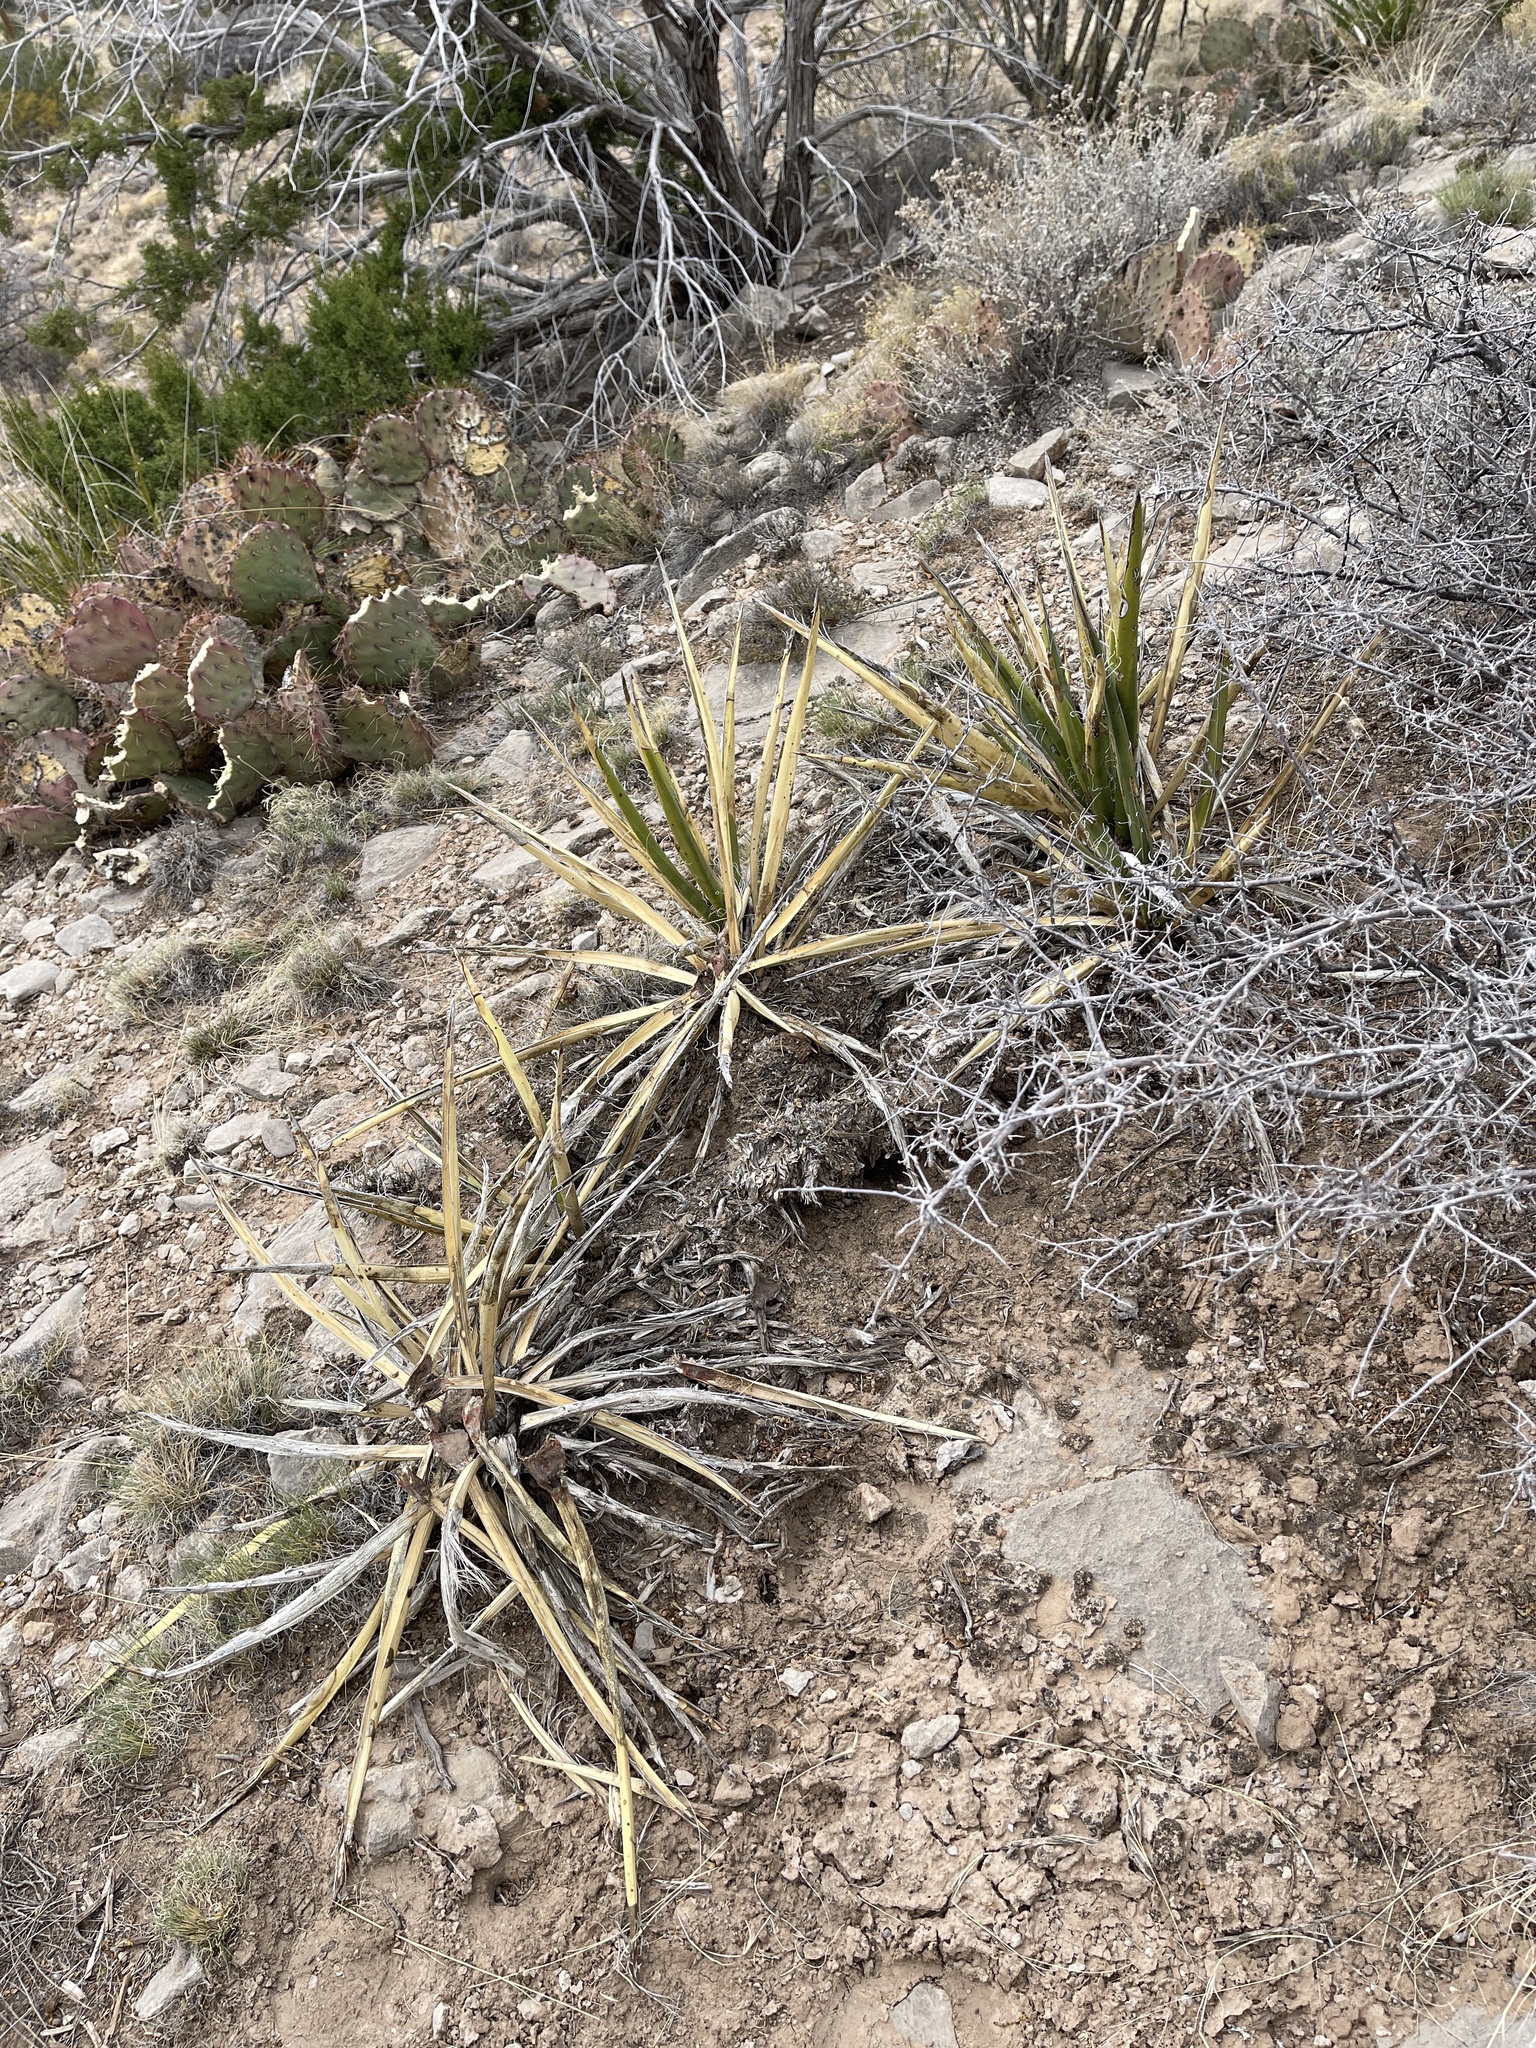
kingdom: Plantae
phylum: Tracheophyta
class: Liliopsida
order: Asparagales
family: Asparagaceae
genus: Yucca
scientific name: Yucca baccata
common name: Banana yucca
